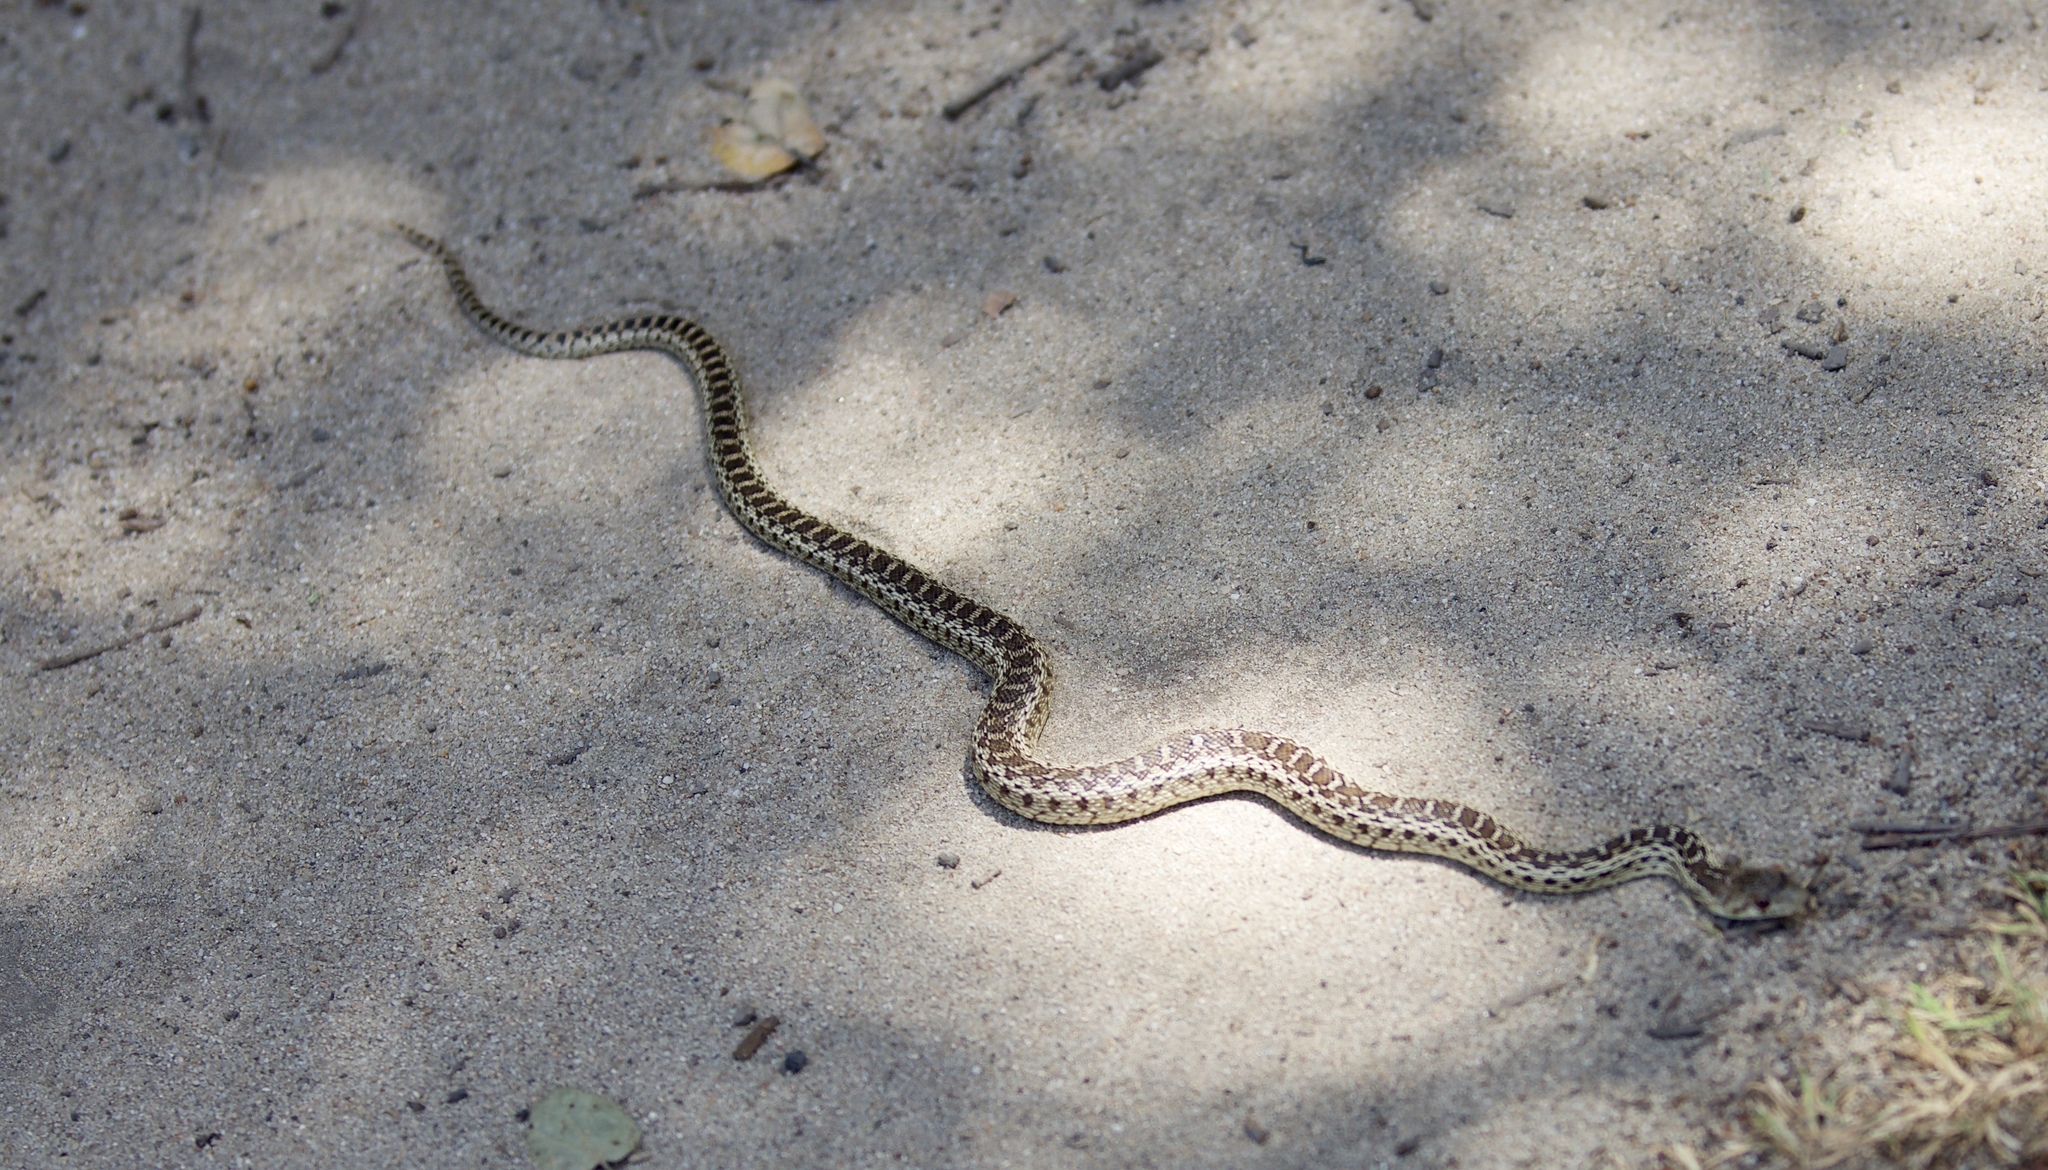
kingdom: Animalia
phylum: Chordata
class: Squamata
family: Colubridae
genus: Pituophis
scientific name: Pituophis catenifer
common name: Gopher snake
